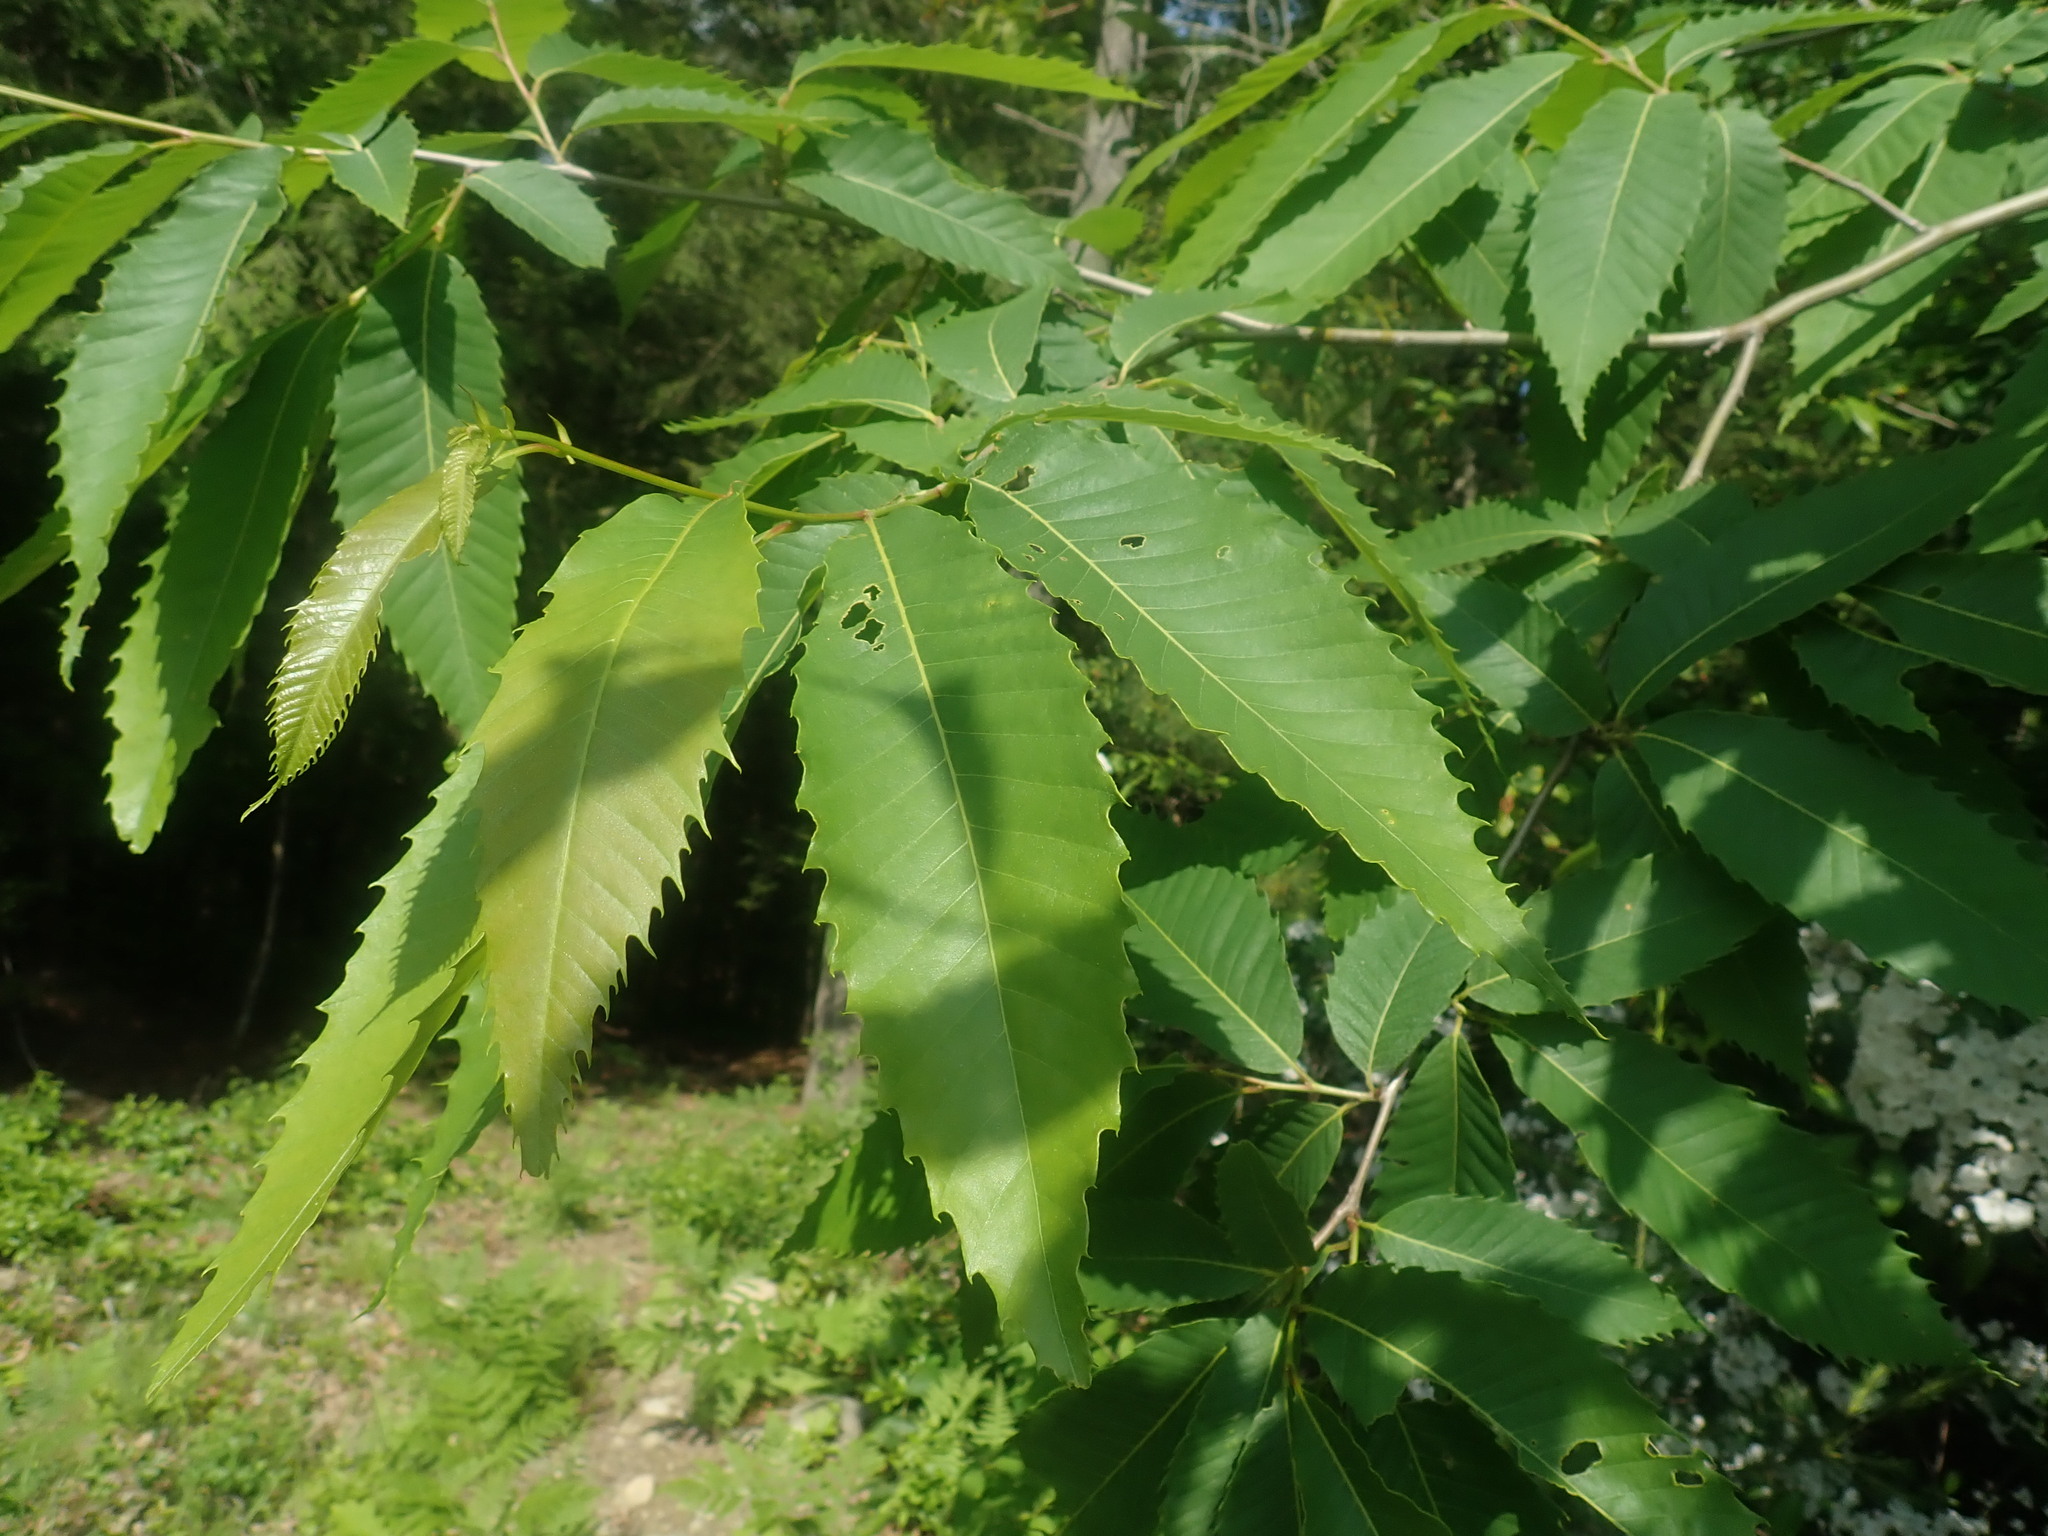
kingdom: Plantae
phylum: Tracheophyta
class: Magnoliopsida
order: Fagales
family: Fagaceae
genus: Castanea
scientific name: Castanea dentata
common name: American chestnut
